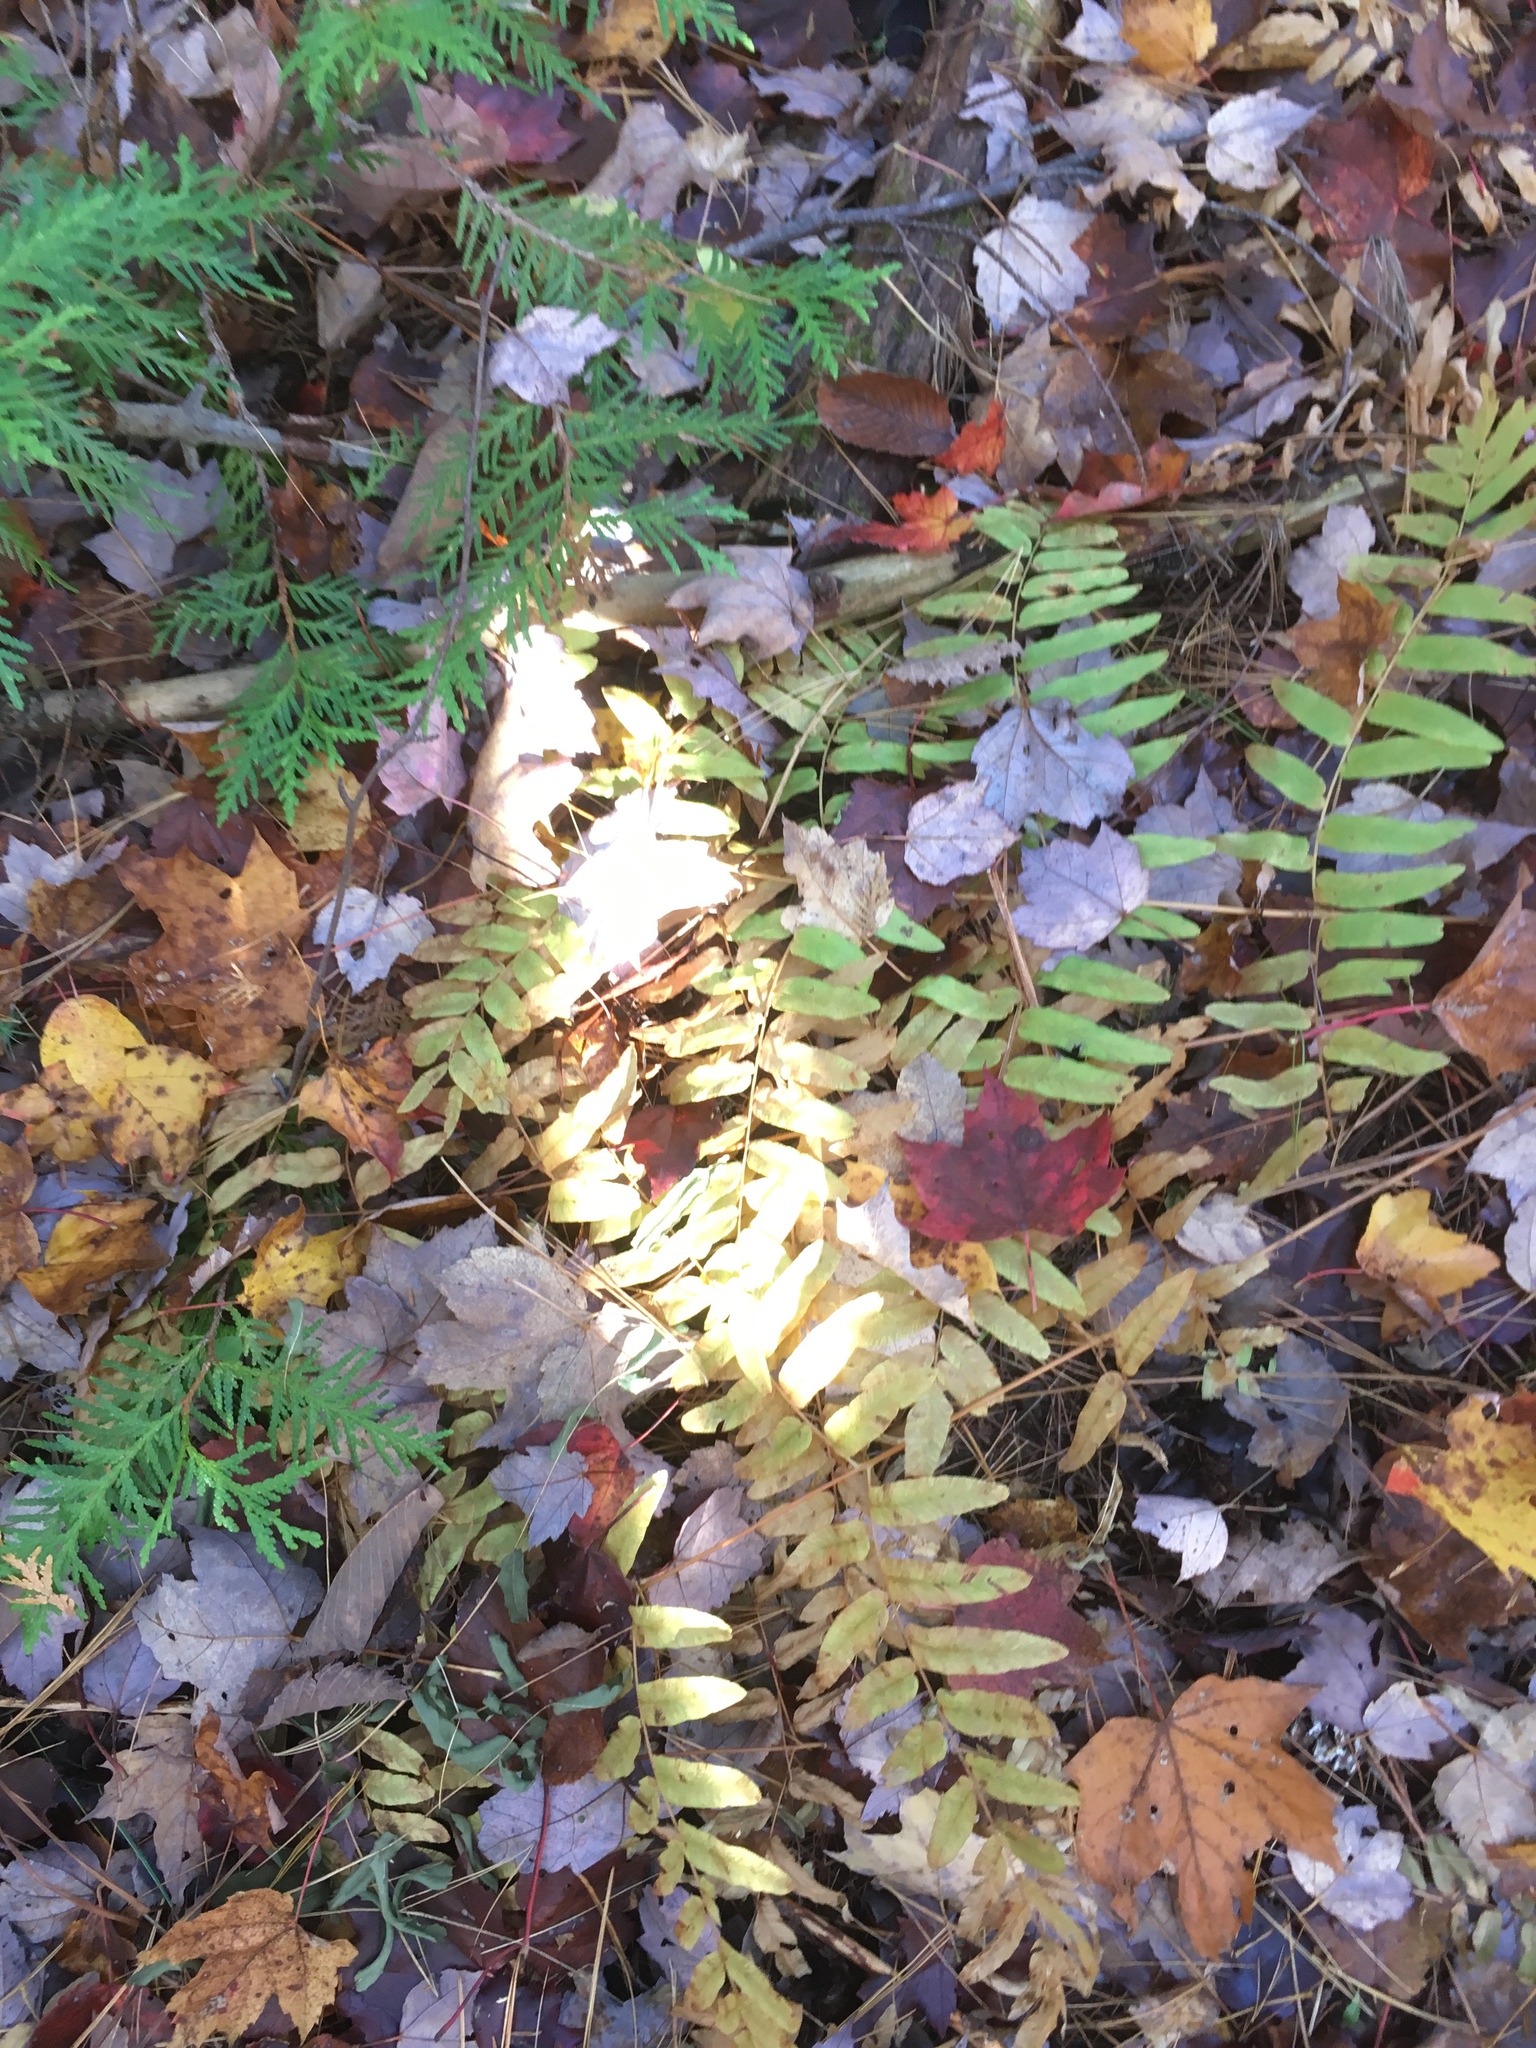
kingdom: Plantae
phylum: Tracheophyta
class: Polypodiopsida
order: Osmundales
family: Osmundaceae
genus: Osmunda
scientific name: Osmunda spectabilis
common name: American royal fern
